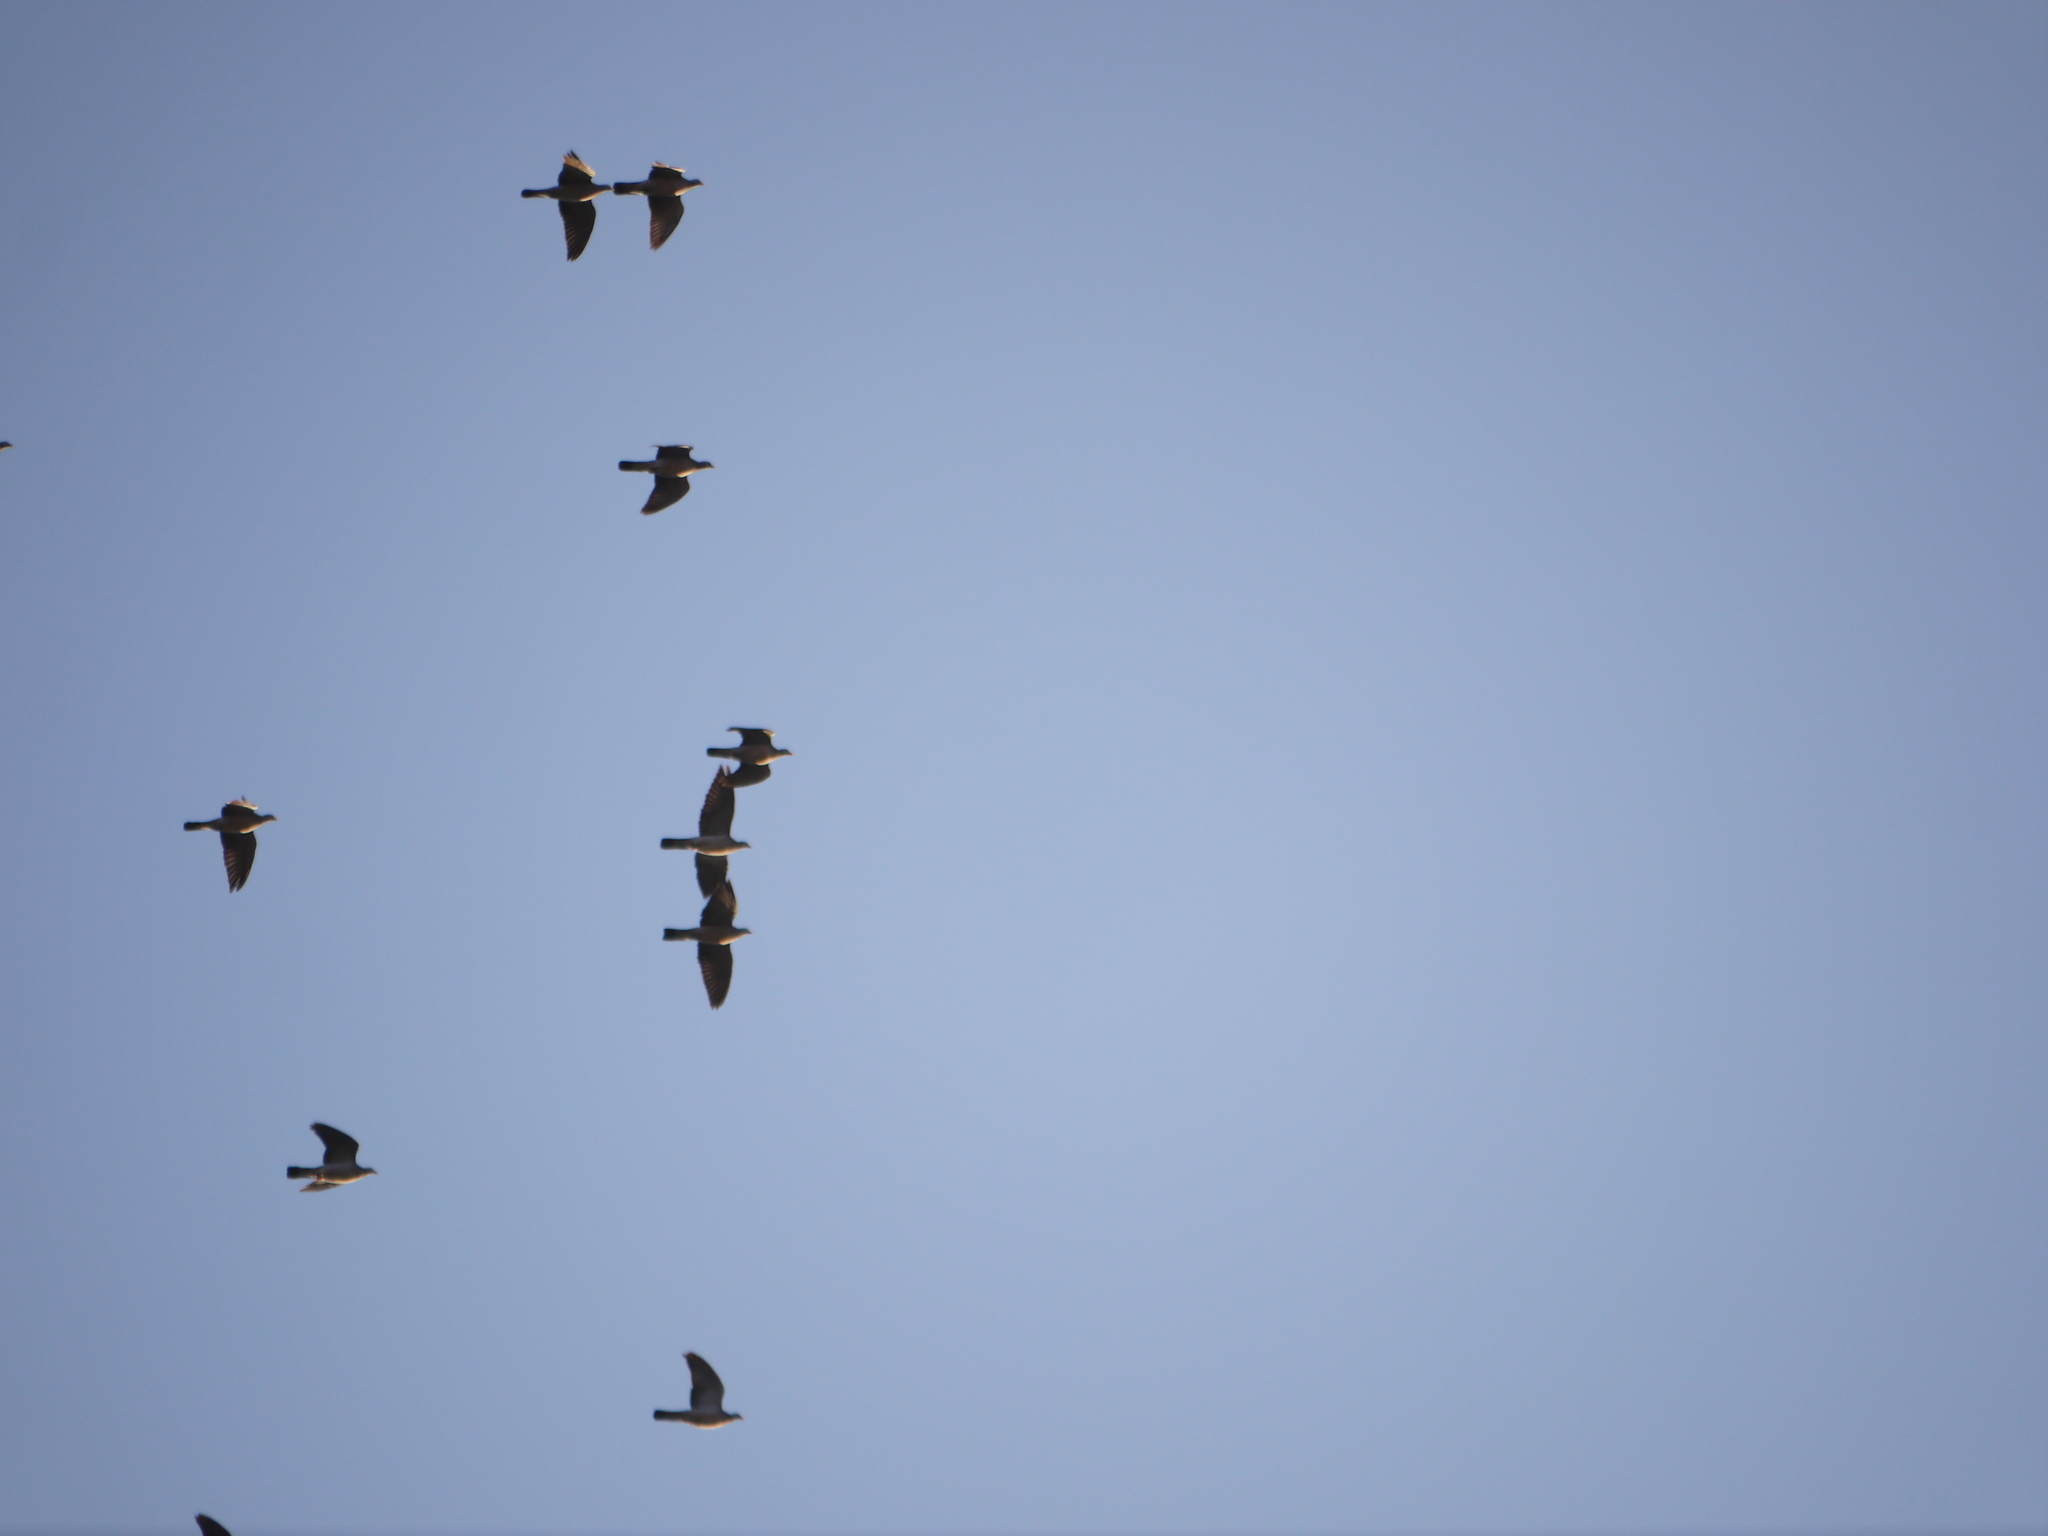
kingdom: Animalia
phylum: Chordata
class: Aves
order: Columbiformes
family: Columbidae
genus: Columba
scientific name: Columba palumbus
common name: Common wood pigeon
